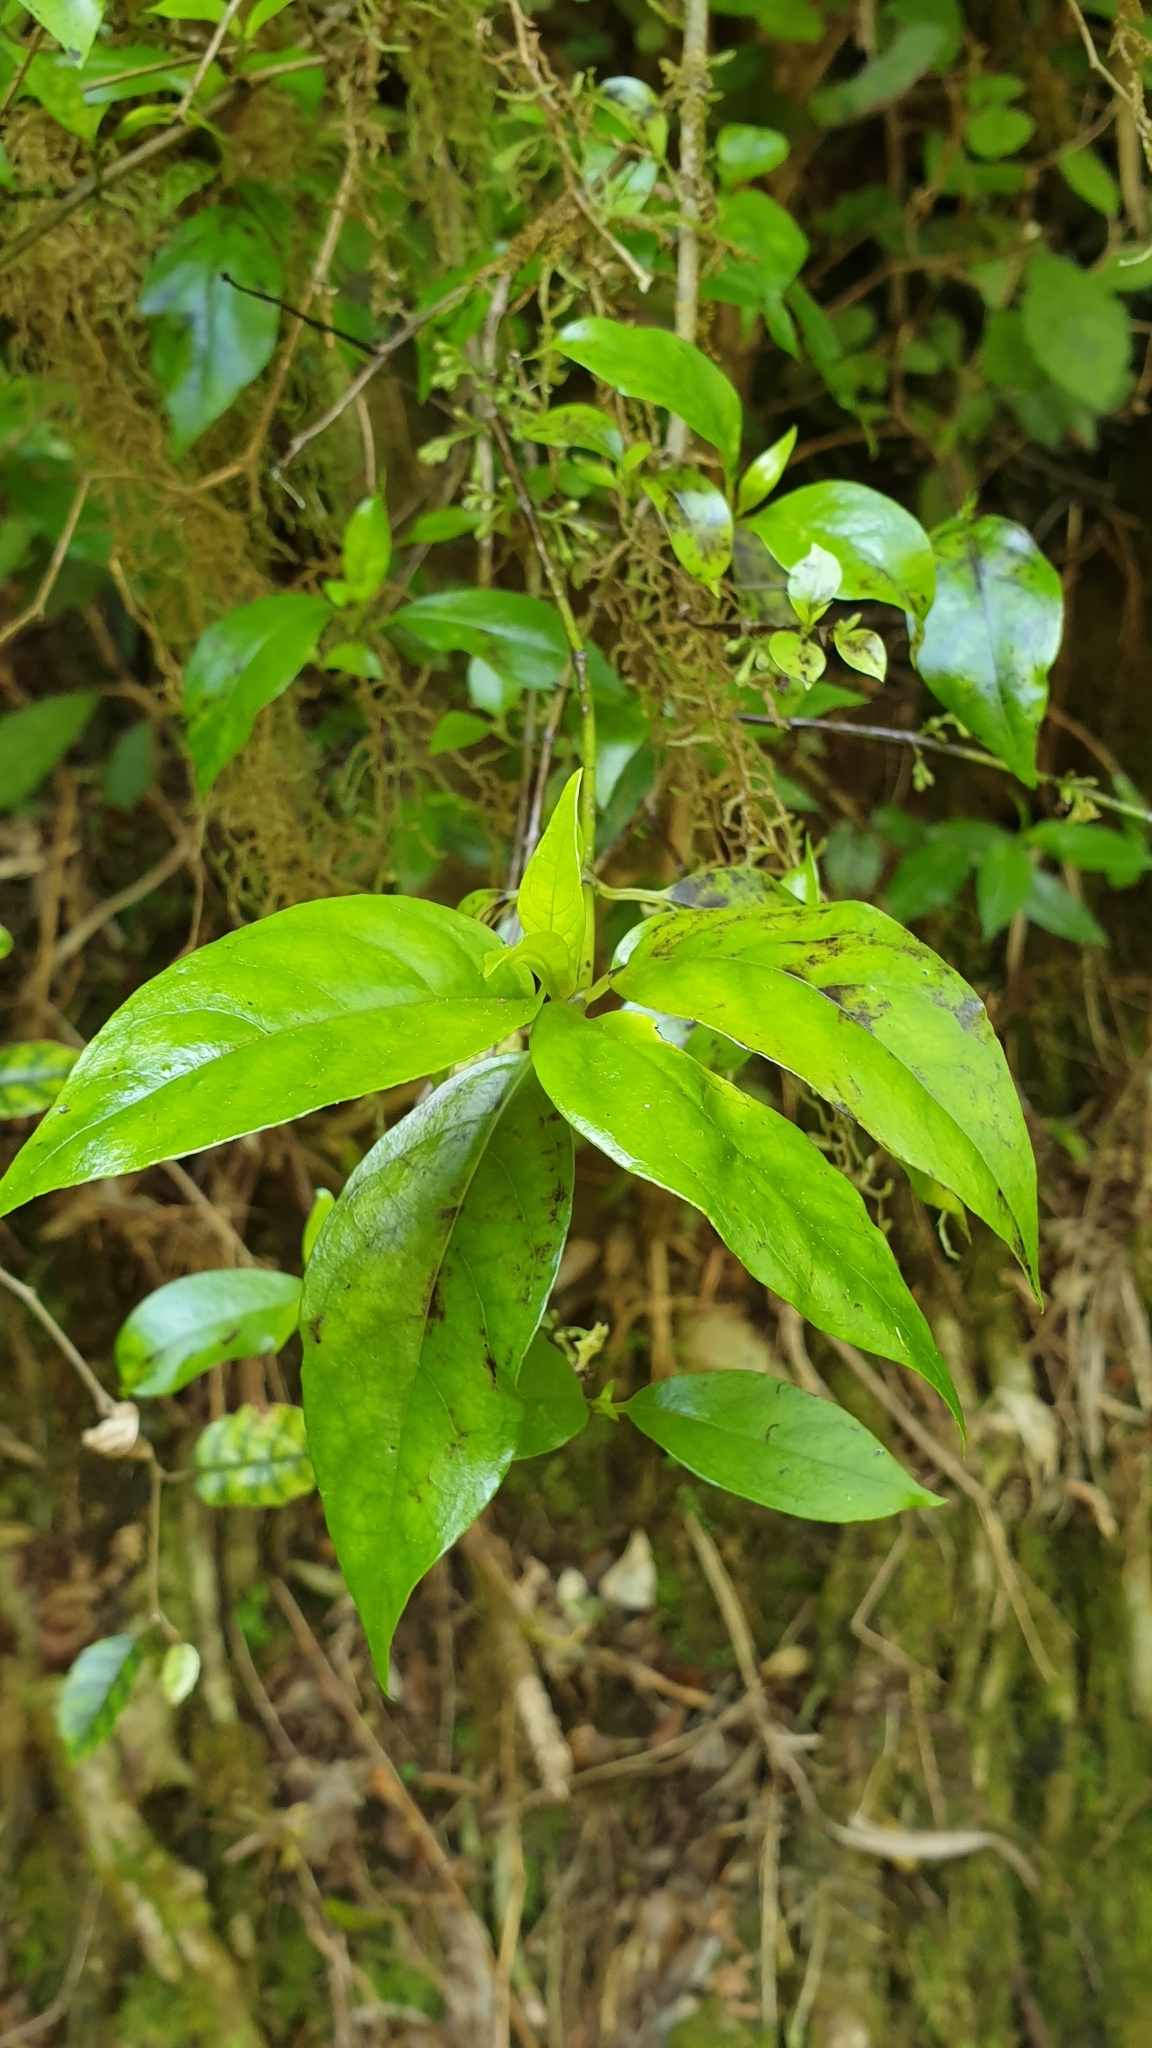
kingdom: Plantae
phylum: Tracheophyta
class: Magnoliopsida
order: Gentianales
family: Loganiaceae
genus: Geniostoma
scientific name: Geniostoma ligustrifolium
